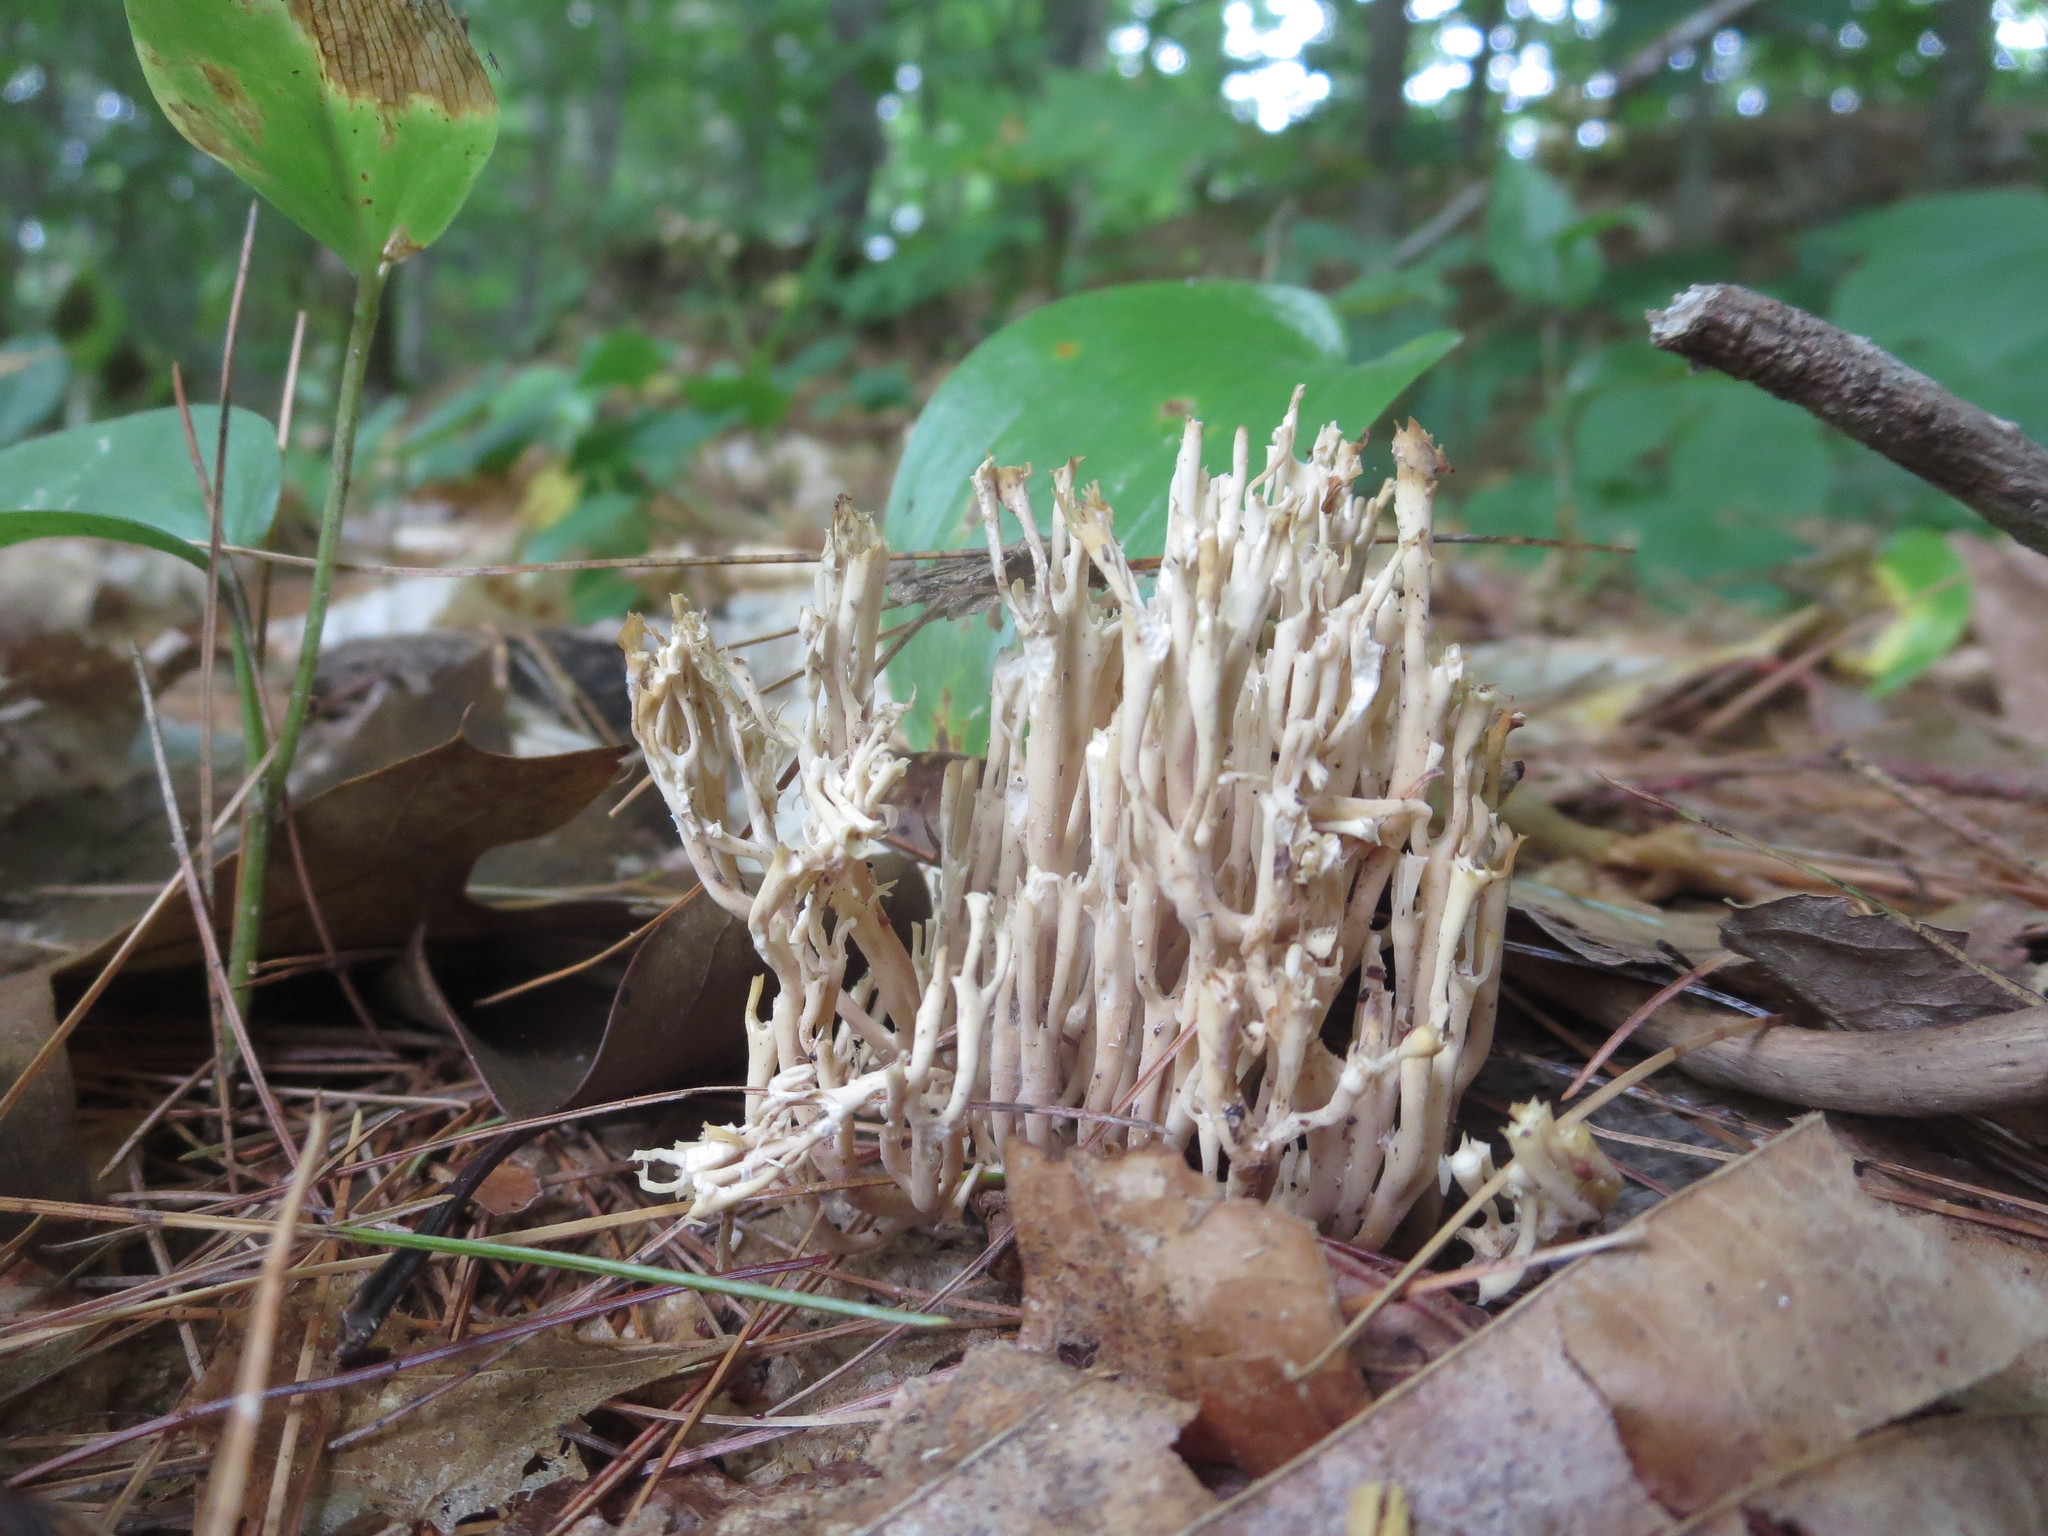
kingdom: Fungi
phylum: Basidiomycota
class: Agaricomycetes
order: Russulales
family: Auriscalpiaceae
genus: Artomyces
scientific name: Artomyces pyxidatus
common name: Crown-tipped coral fungus
